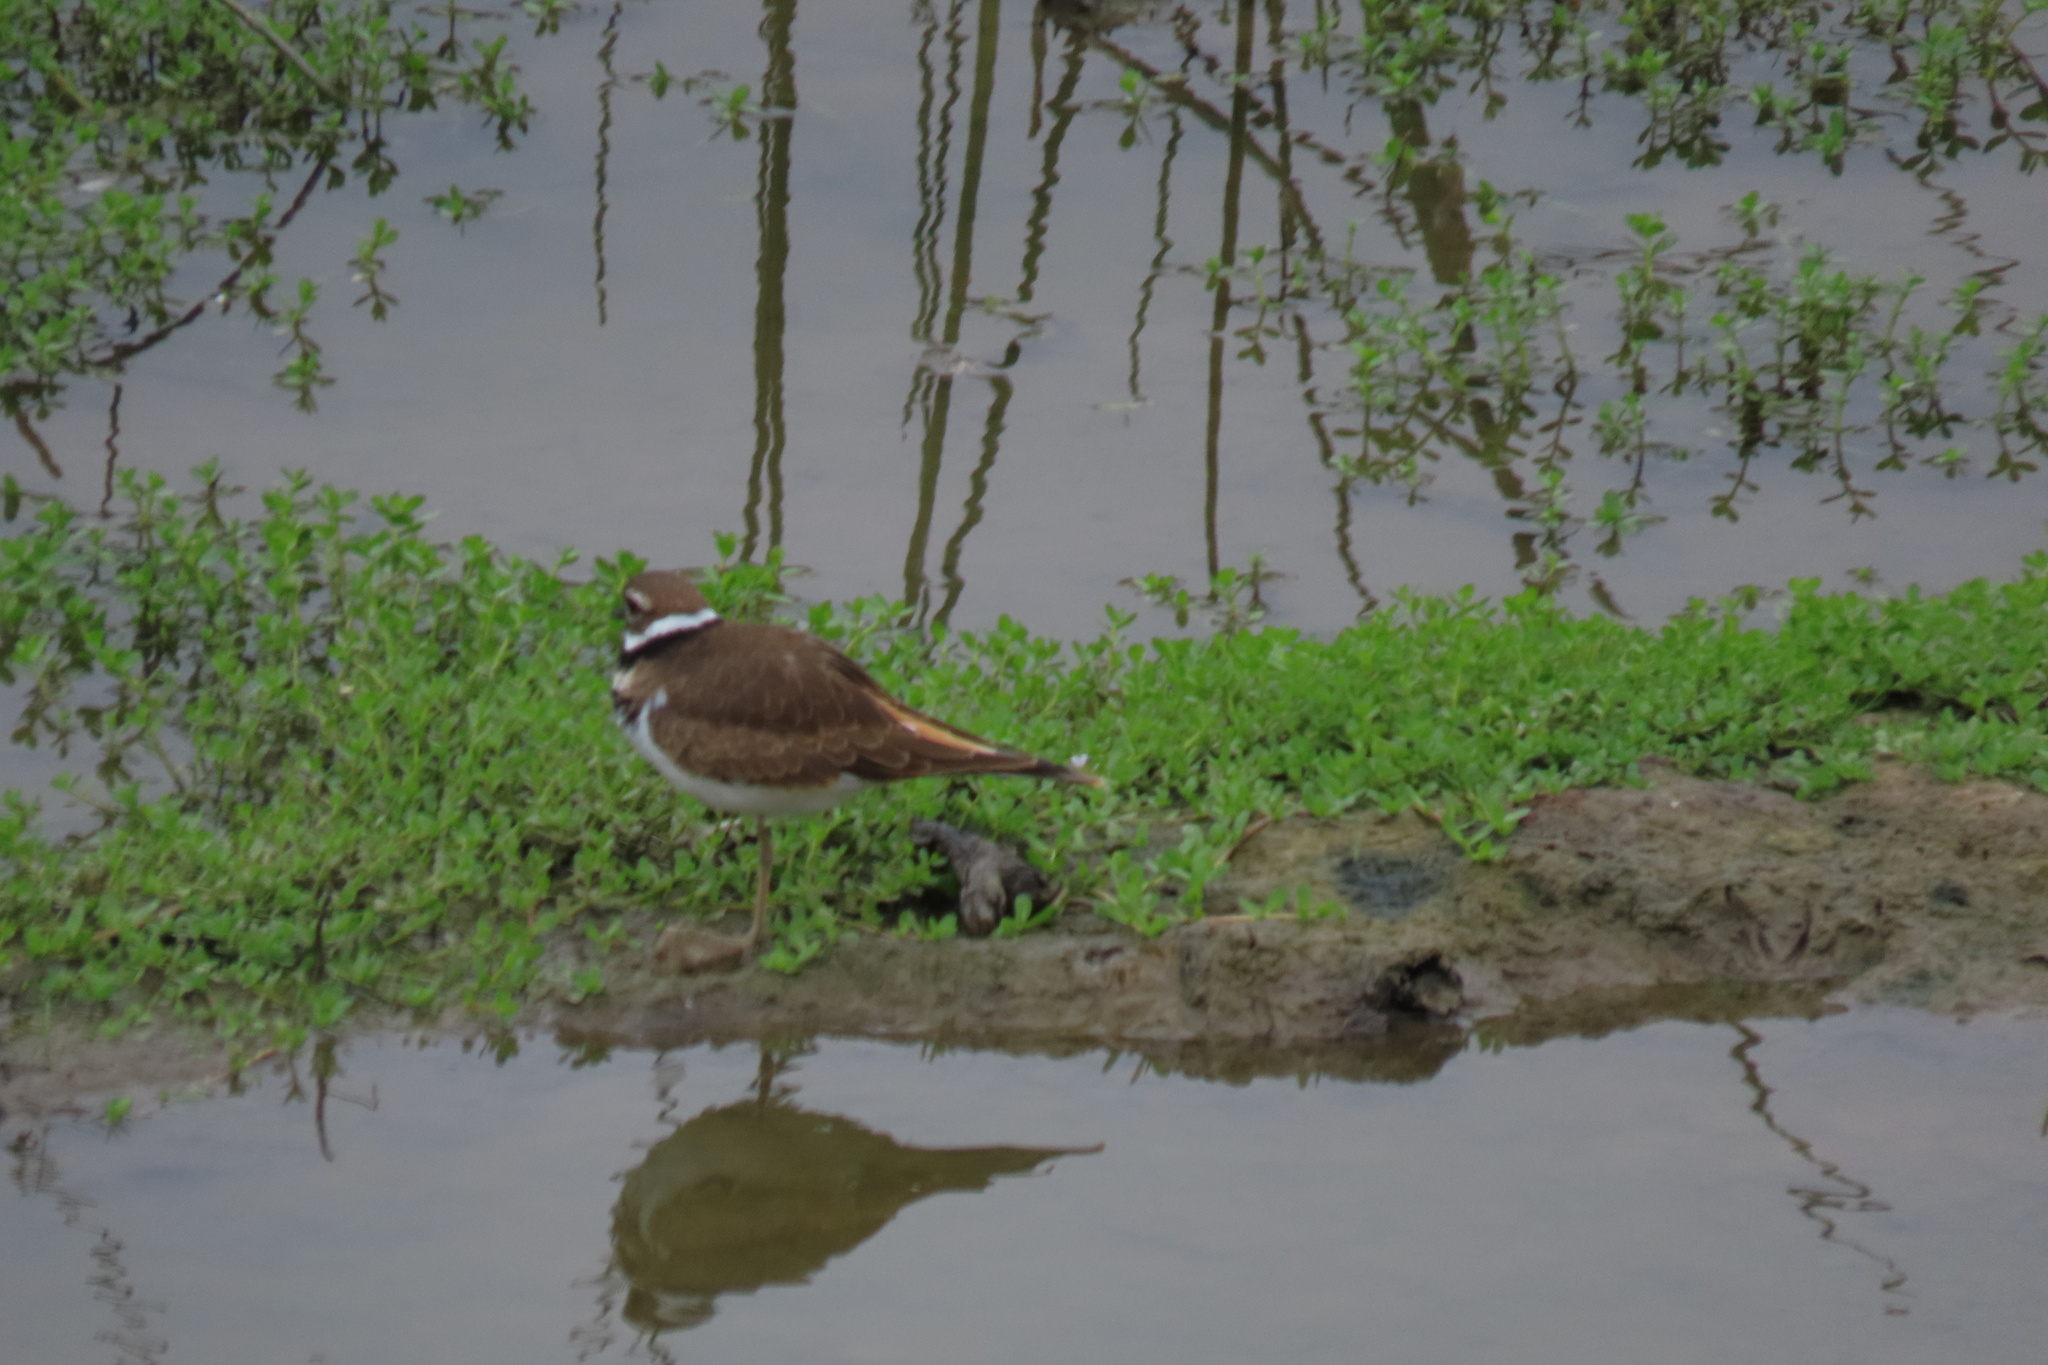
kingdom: Animalia
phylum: Chordata
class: Aves
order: Charadriiformes
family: Charadriidae
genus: Charadrius
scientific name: Charadrius vociferus
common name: Killdeer
